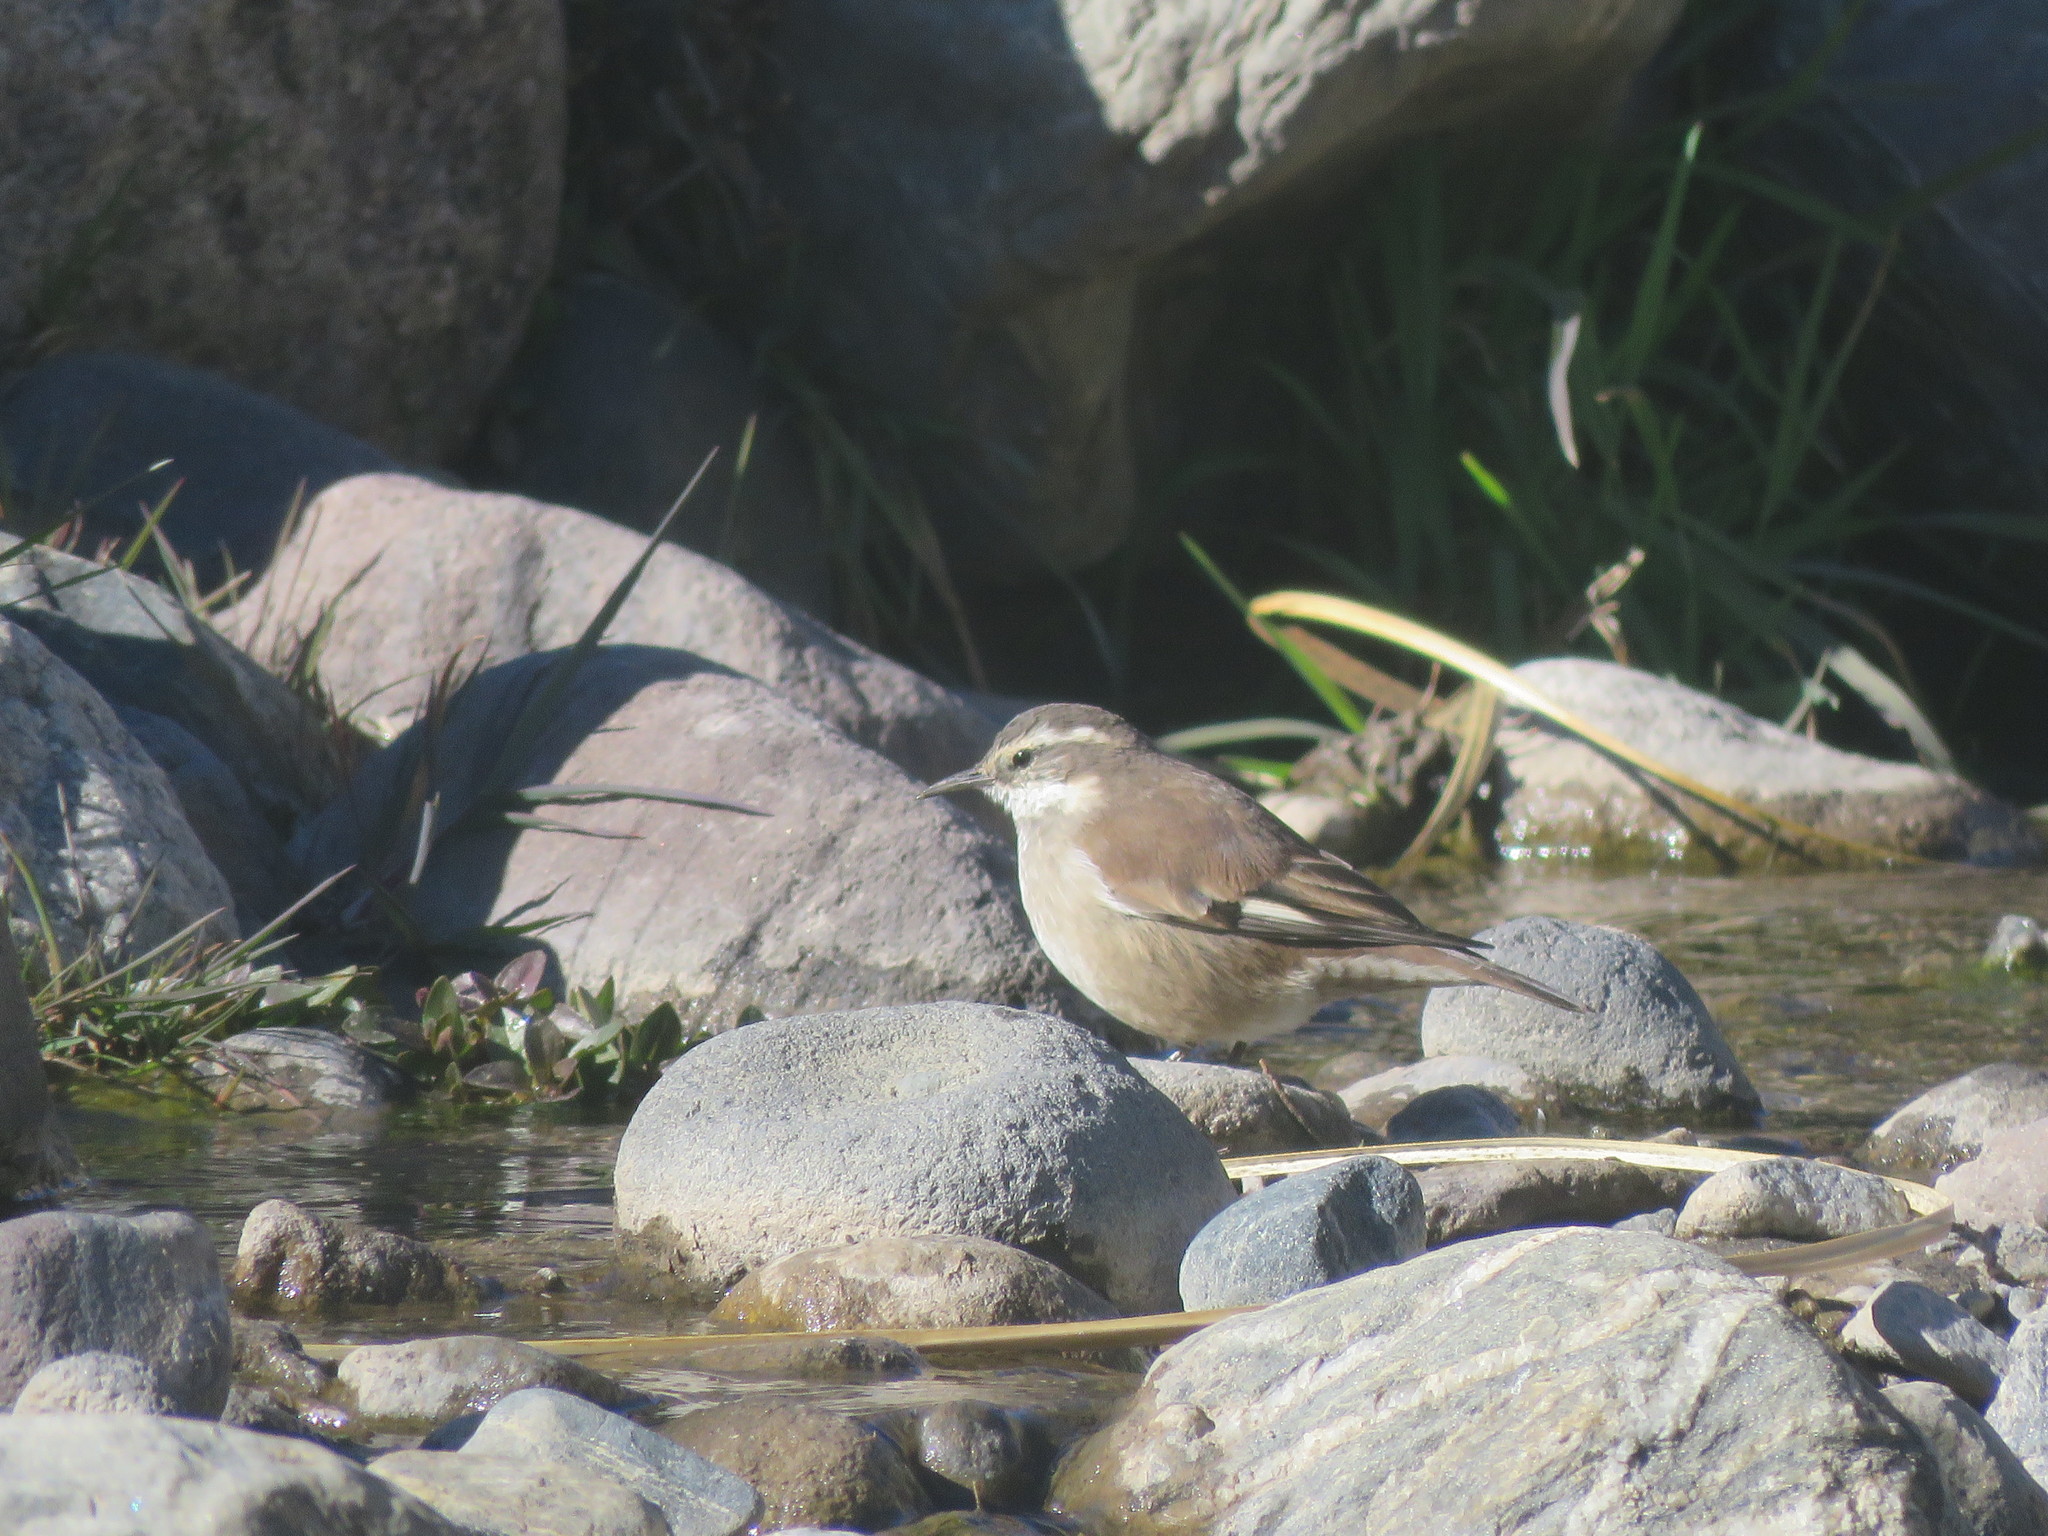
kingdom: Animalia
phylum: Chordata
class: Aves
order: Passeriformes
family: Furnariidae
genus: Cinclodes
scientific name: Cinclodes fuscus
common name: Buff-winged cinclodes
